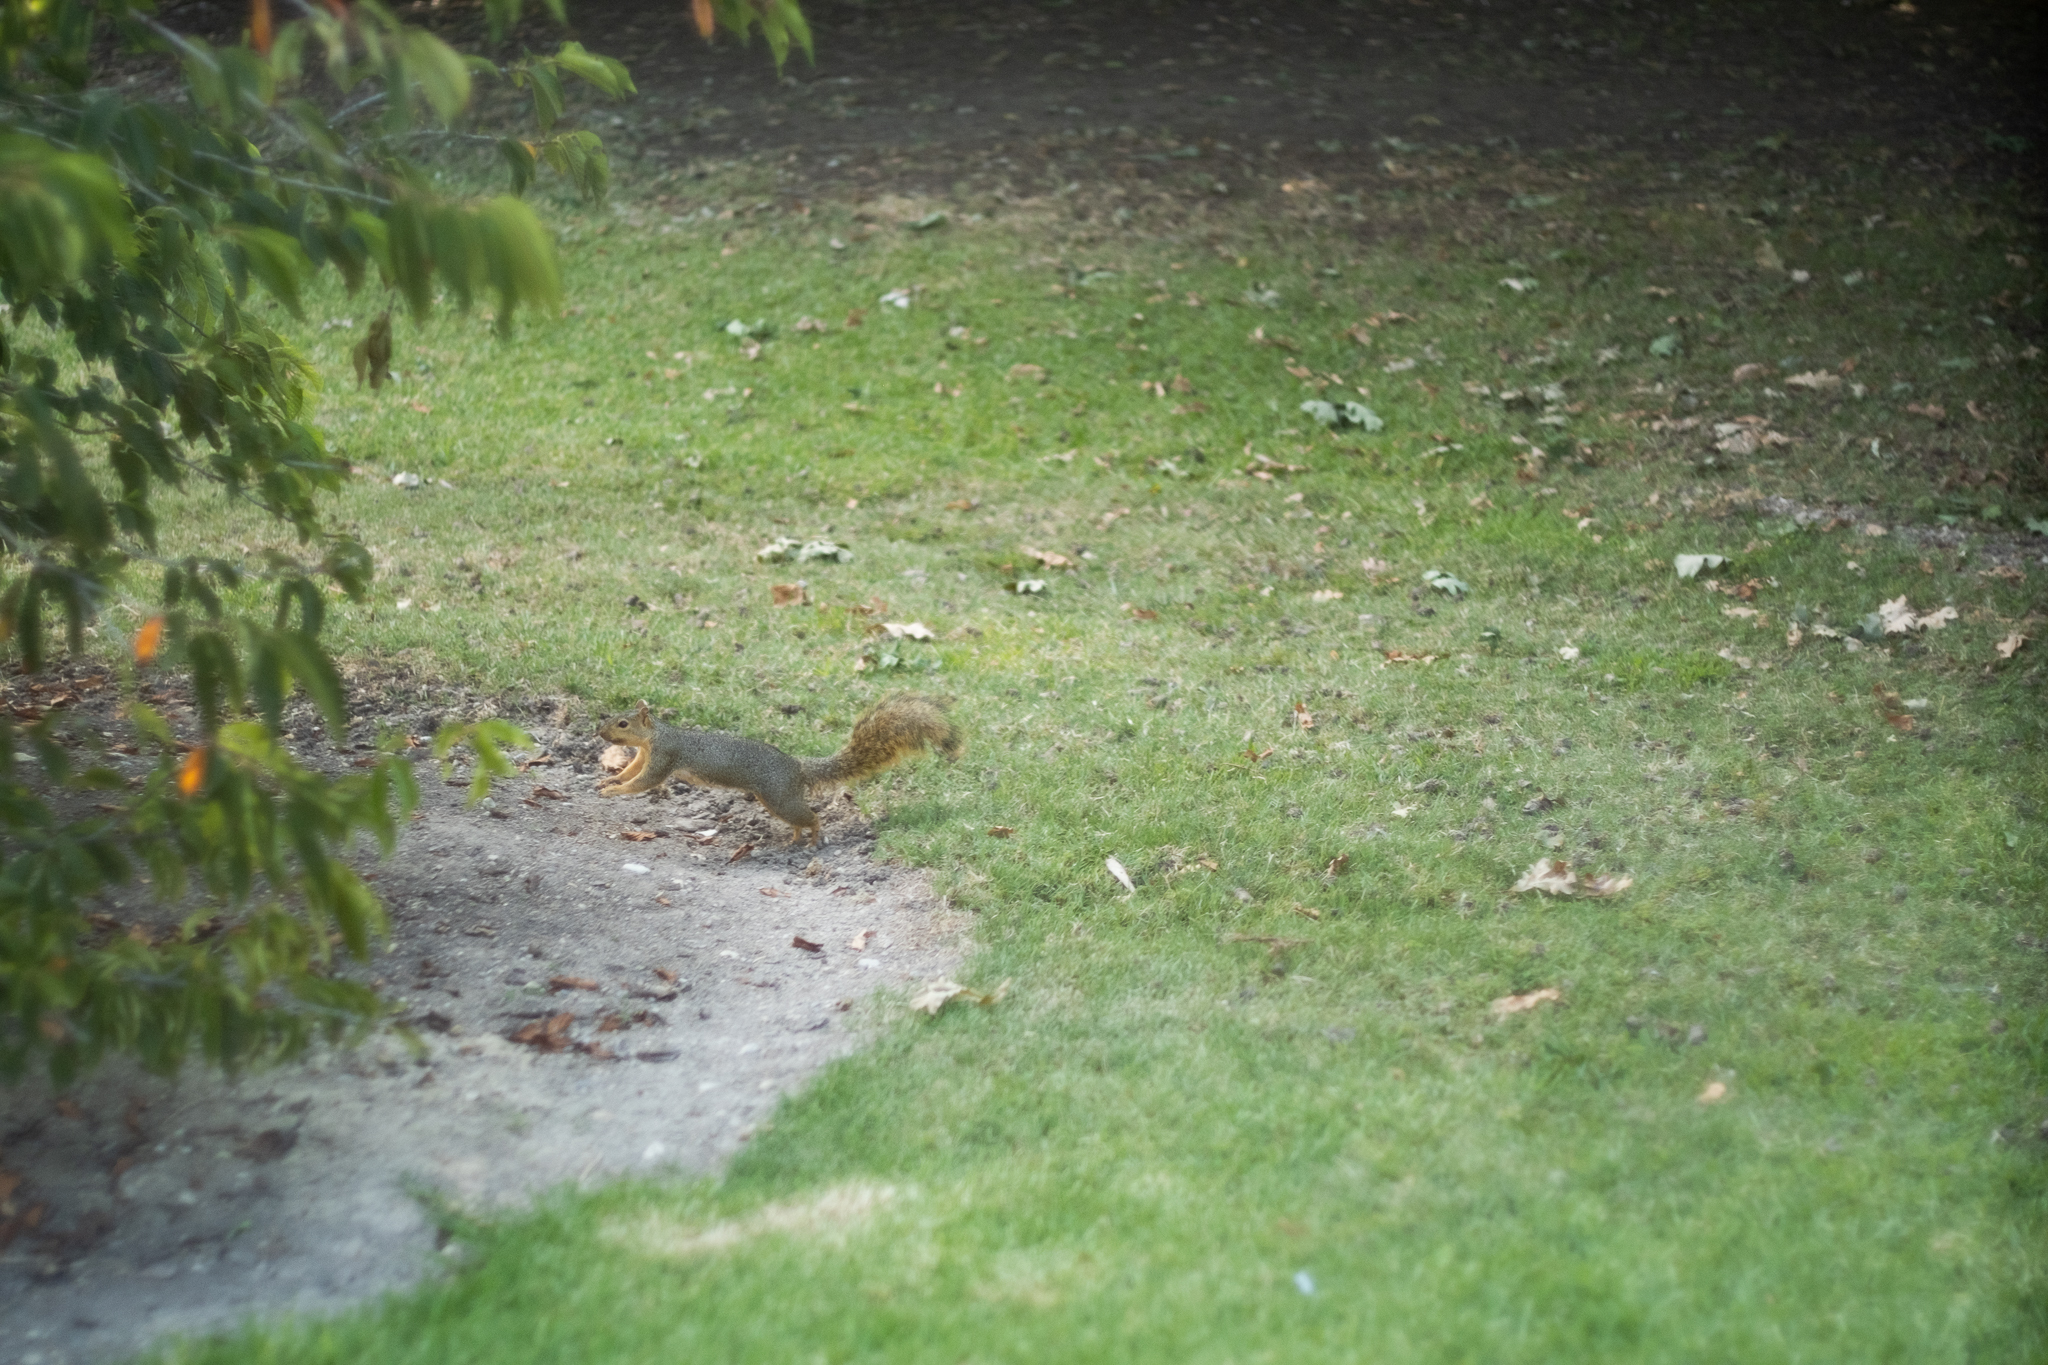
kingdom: Animalia
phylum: Chordata
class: Mammalia
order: Rodentia
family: Sciuridae
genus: Sciurus
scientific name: Sciurus niger
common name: Fox squirrel
